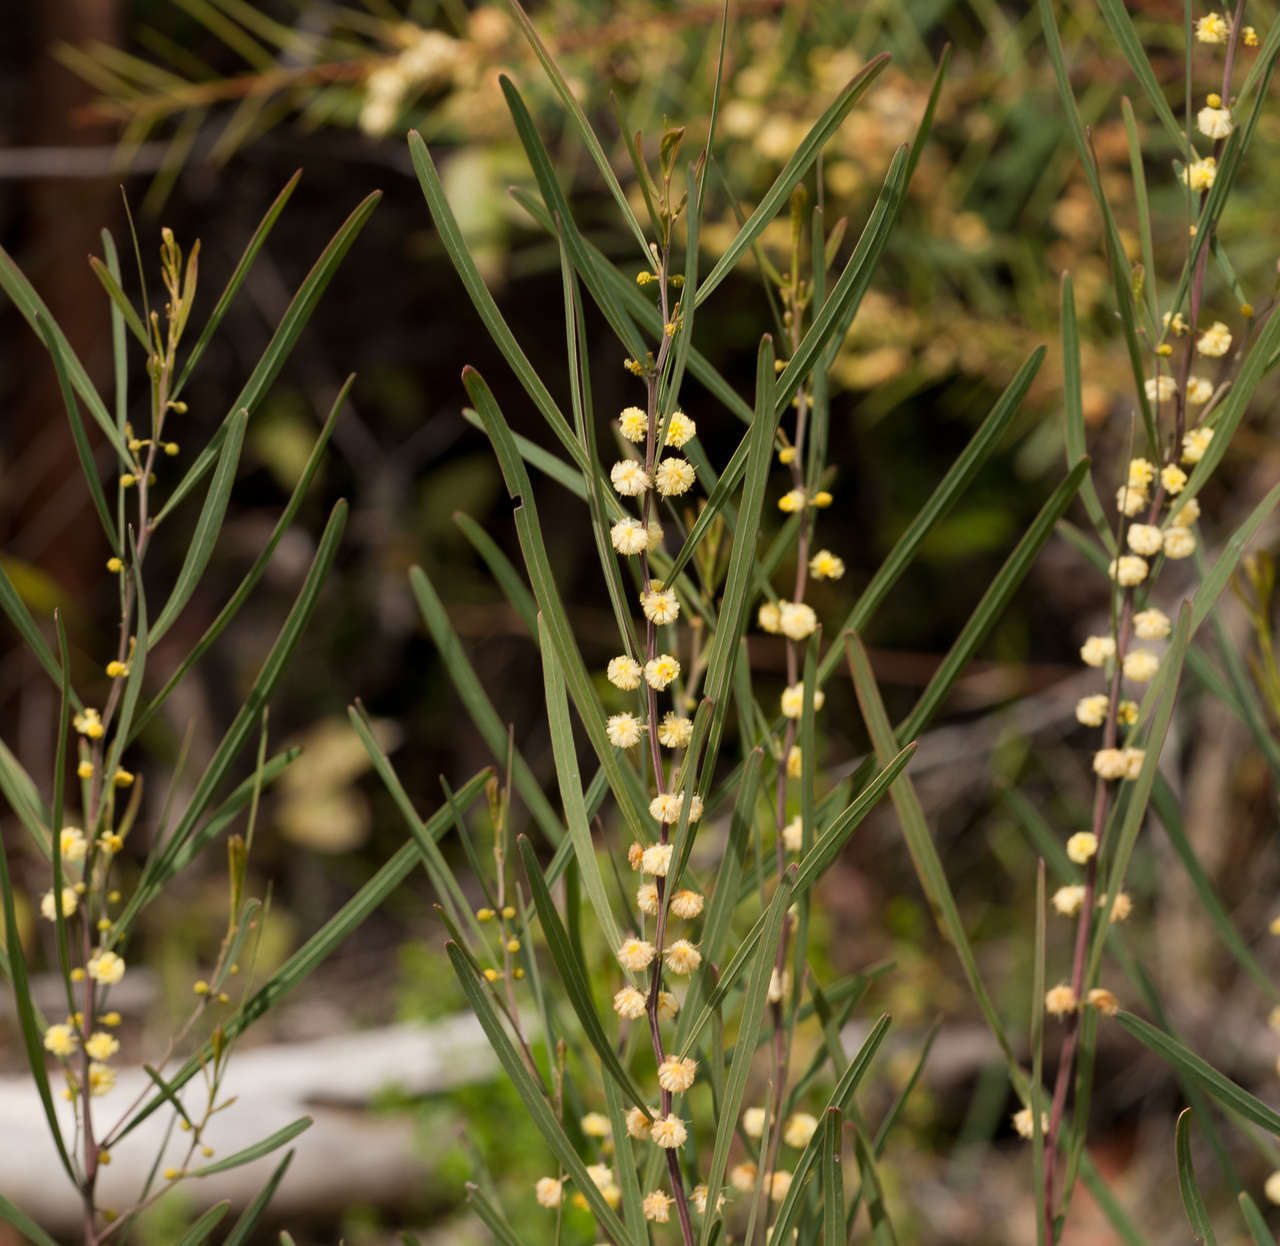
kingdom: Plantae
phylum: Tracheophyta
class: Magnoliopsida
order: Fabales
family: Fabaceae
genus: Acacia
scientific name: Acacia stricta
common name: Hop wattle
